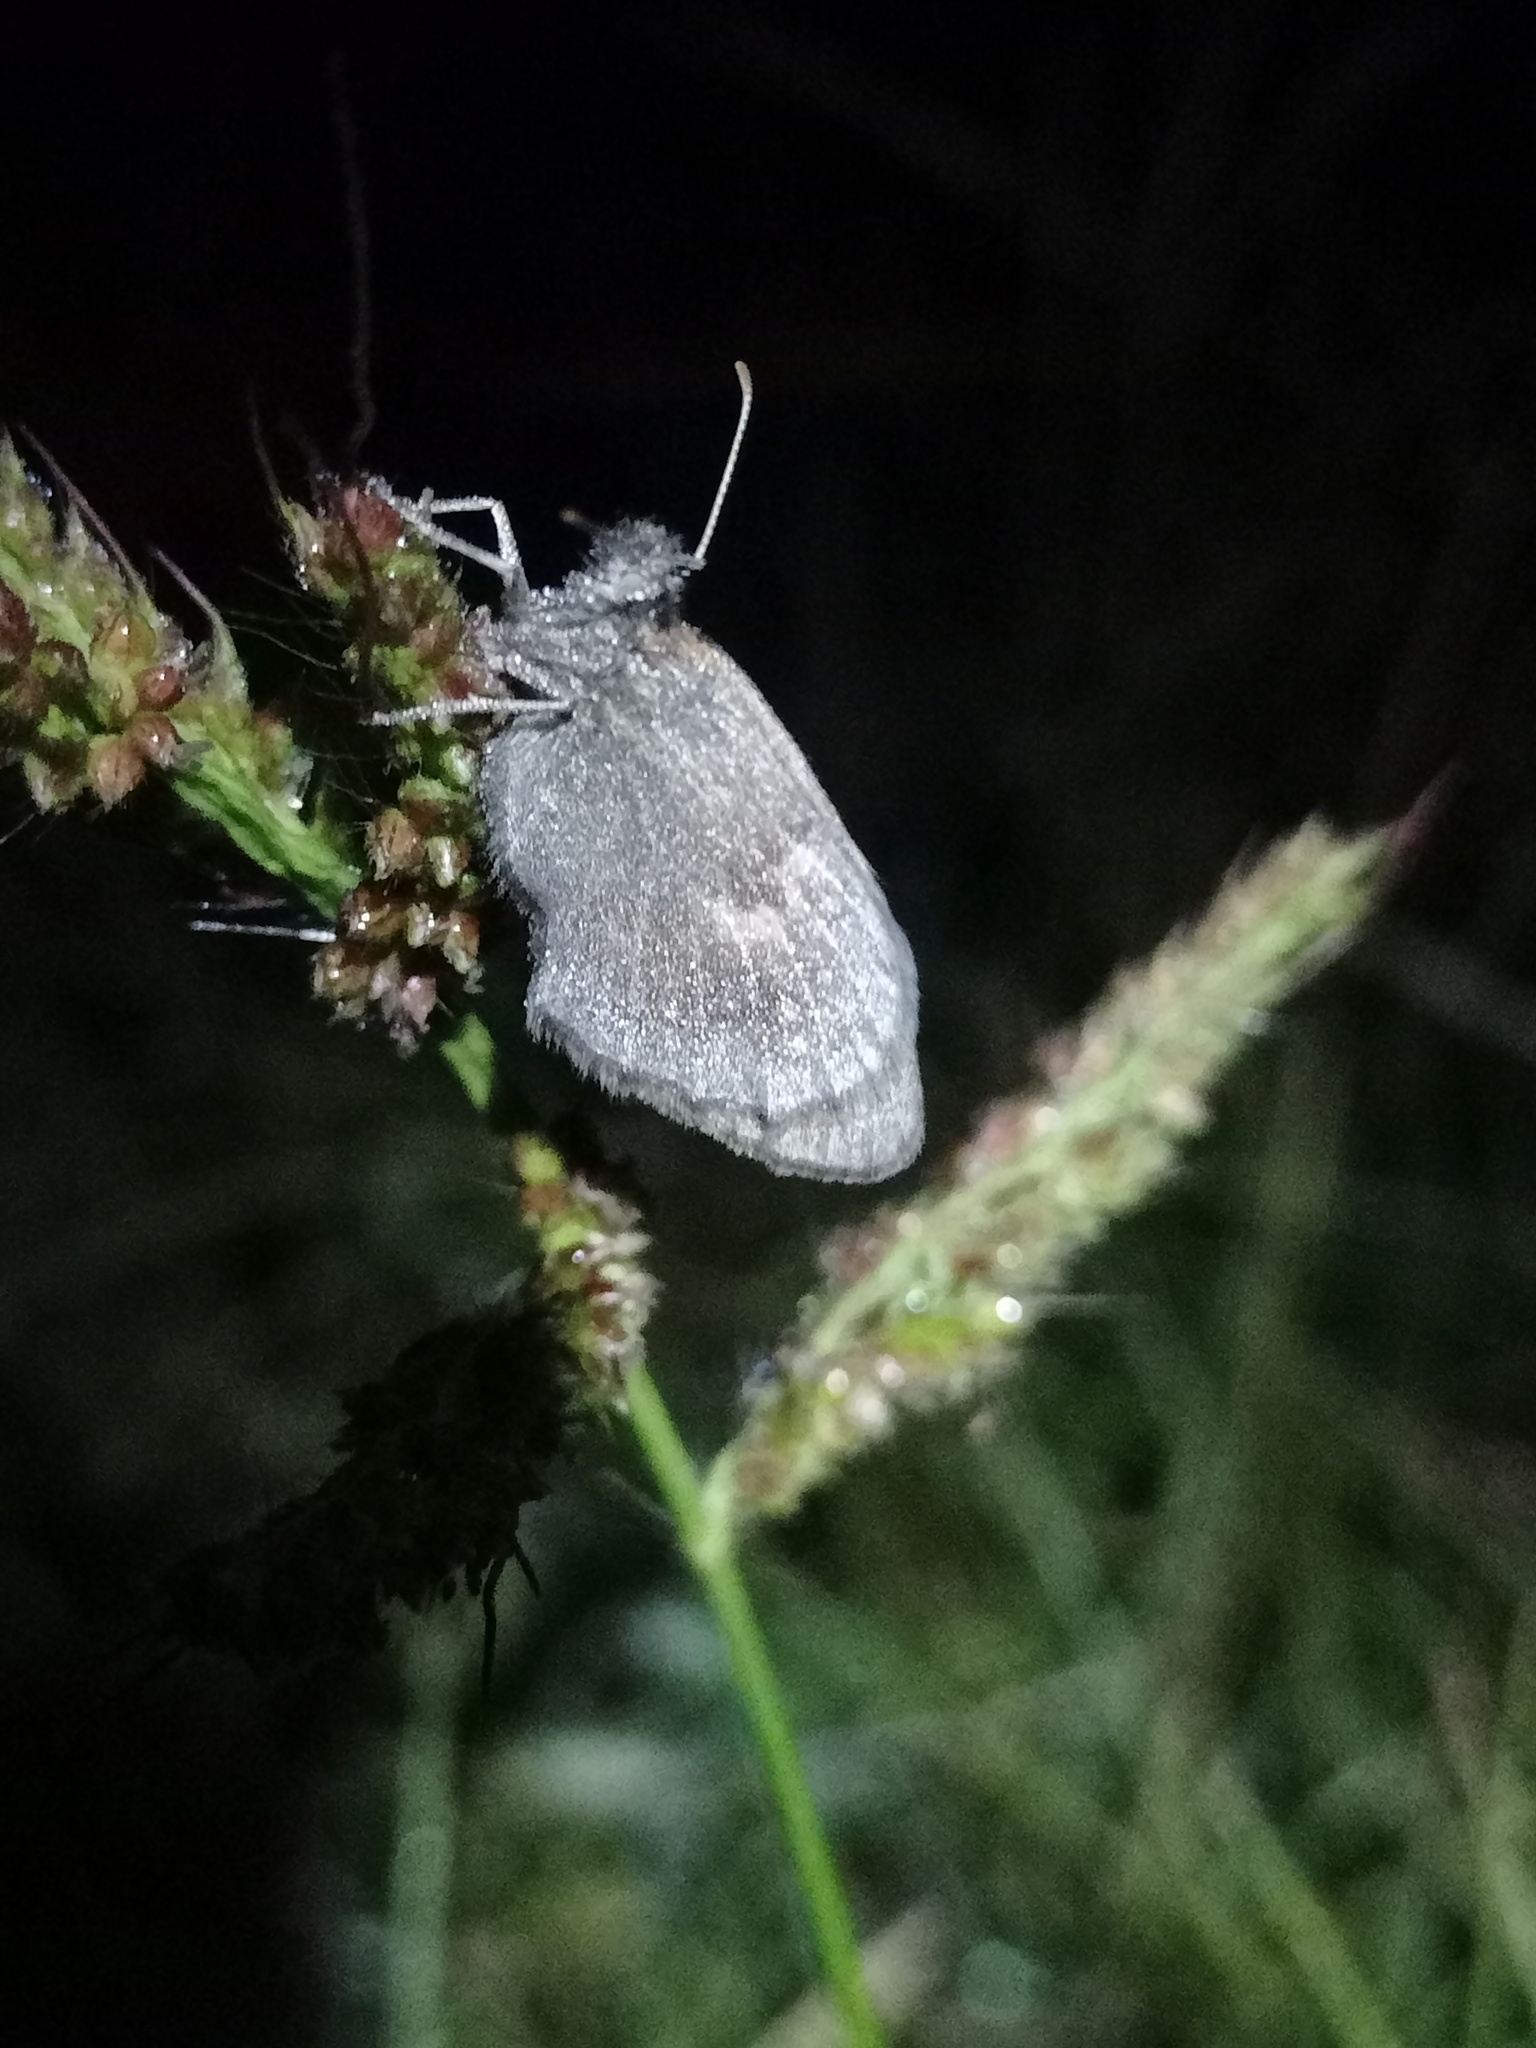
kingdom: Animalia
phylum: Arthropoda
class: Insecta
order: Lepidoptera
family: Nymphalidae
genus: Coenonympha
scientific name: Coenonympha pamphilus
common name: Small heath
